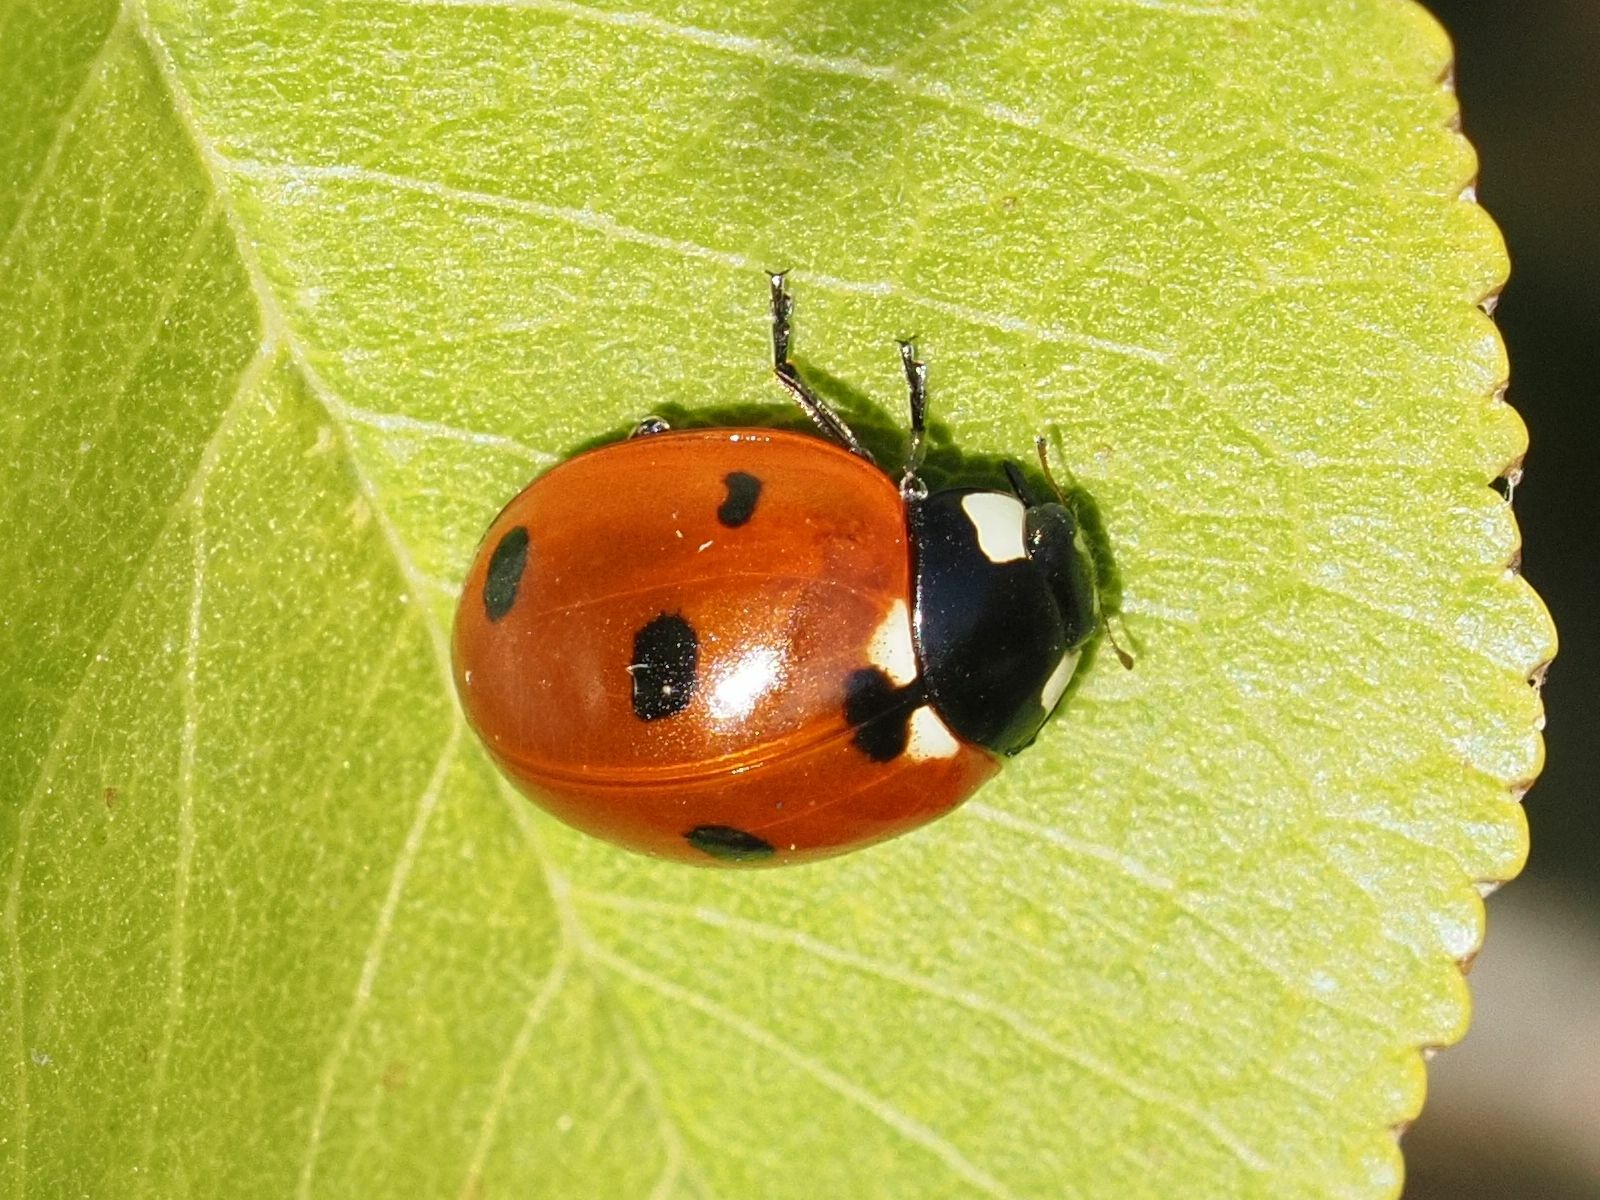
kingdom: Animalia
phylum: Arthropoda
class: Insecta
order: Coleoptera
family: Coccinellidae
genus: Coccinella
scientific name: Coccinella septempunctata
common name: Sevenspotted lady beetle
